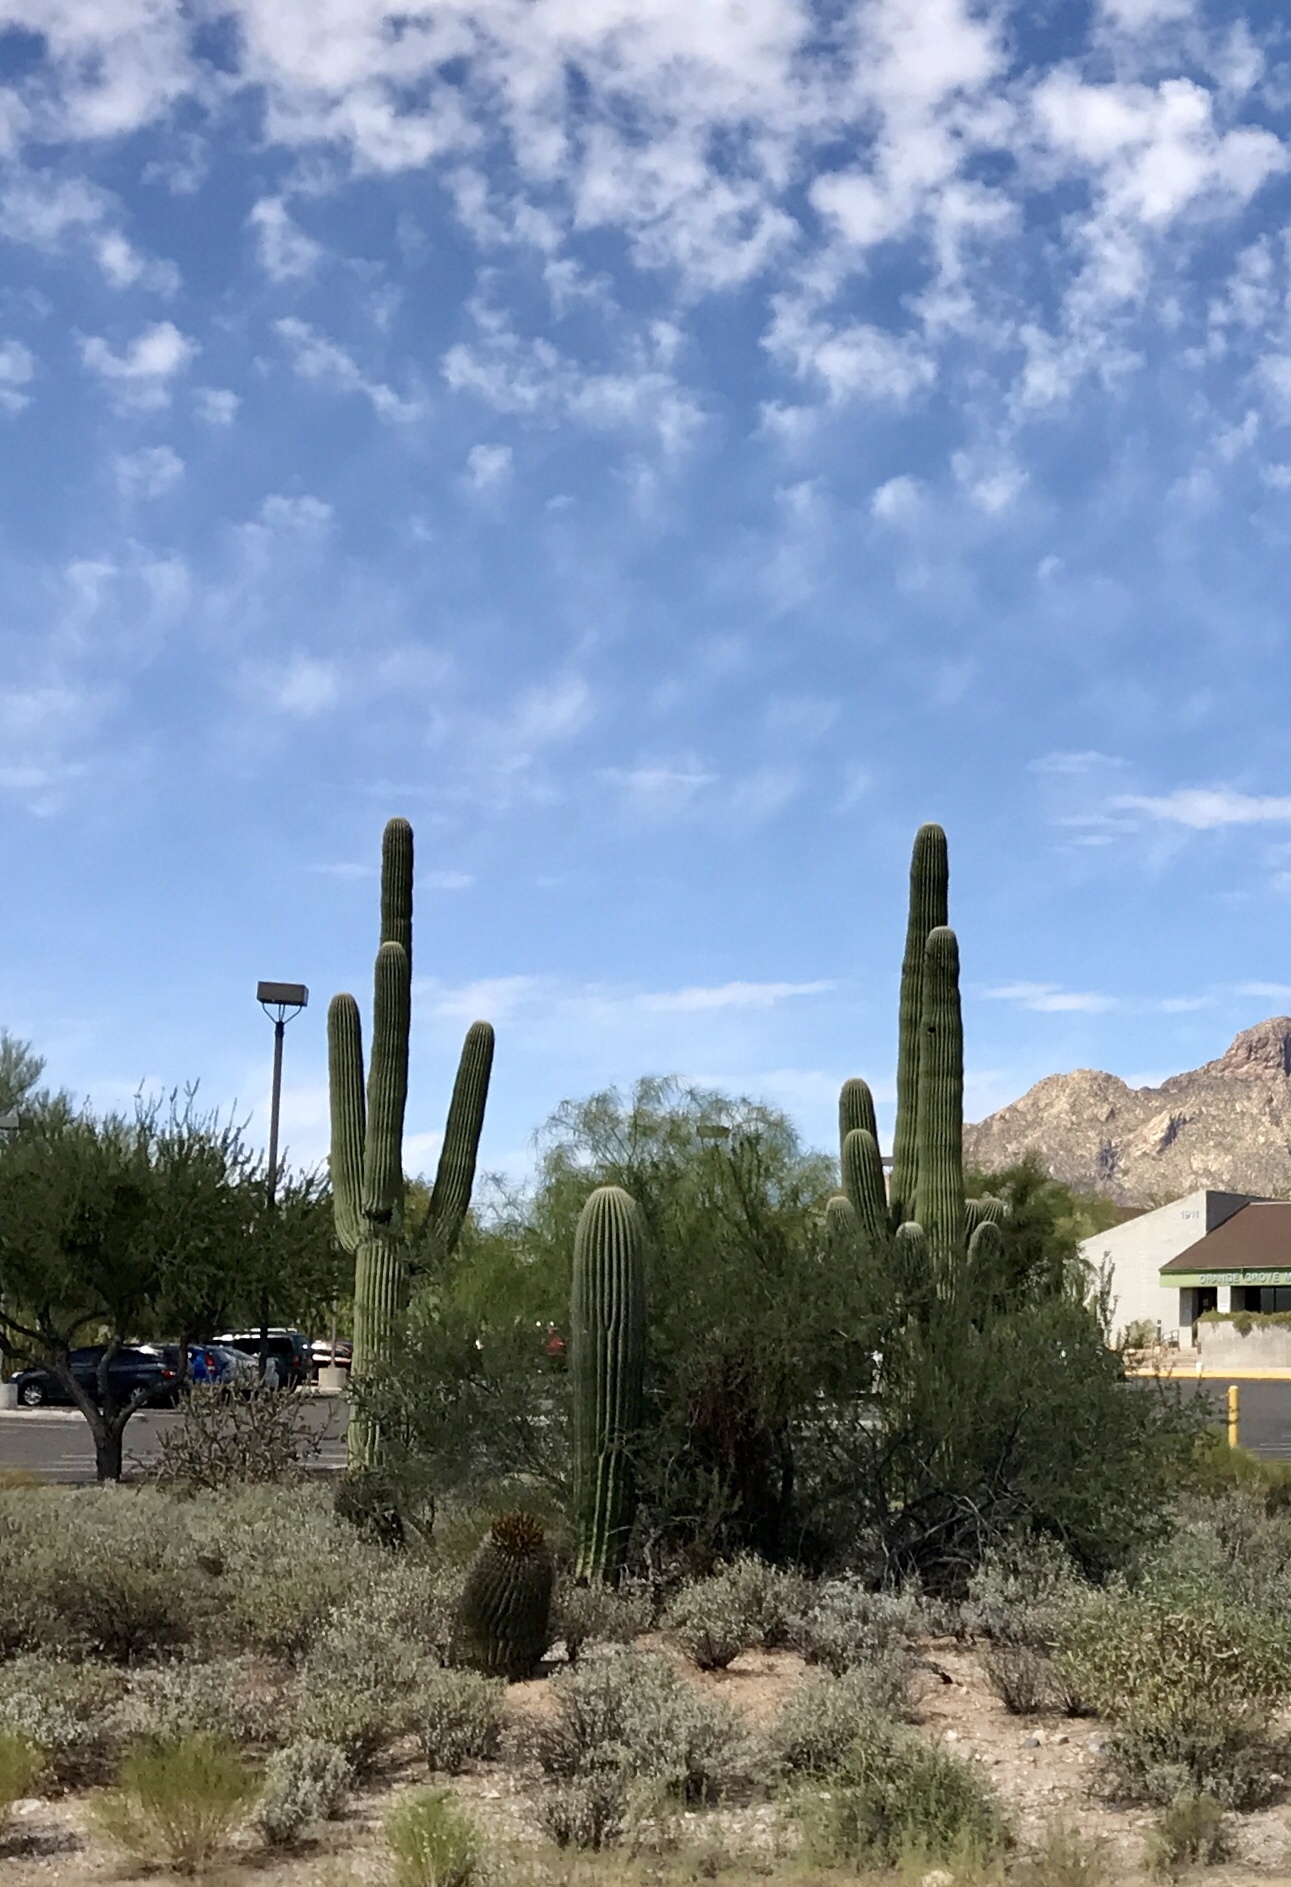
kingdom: Plantae
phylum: Tracheophyta
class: Magnoliopsida
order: Caryophyllales
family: Cactaceae
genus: Carnegiea
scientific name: Carnegiea gigantea
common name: Saguaro
